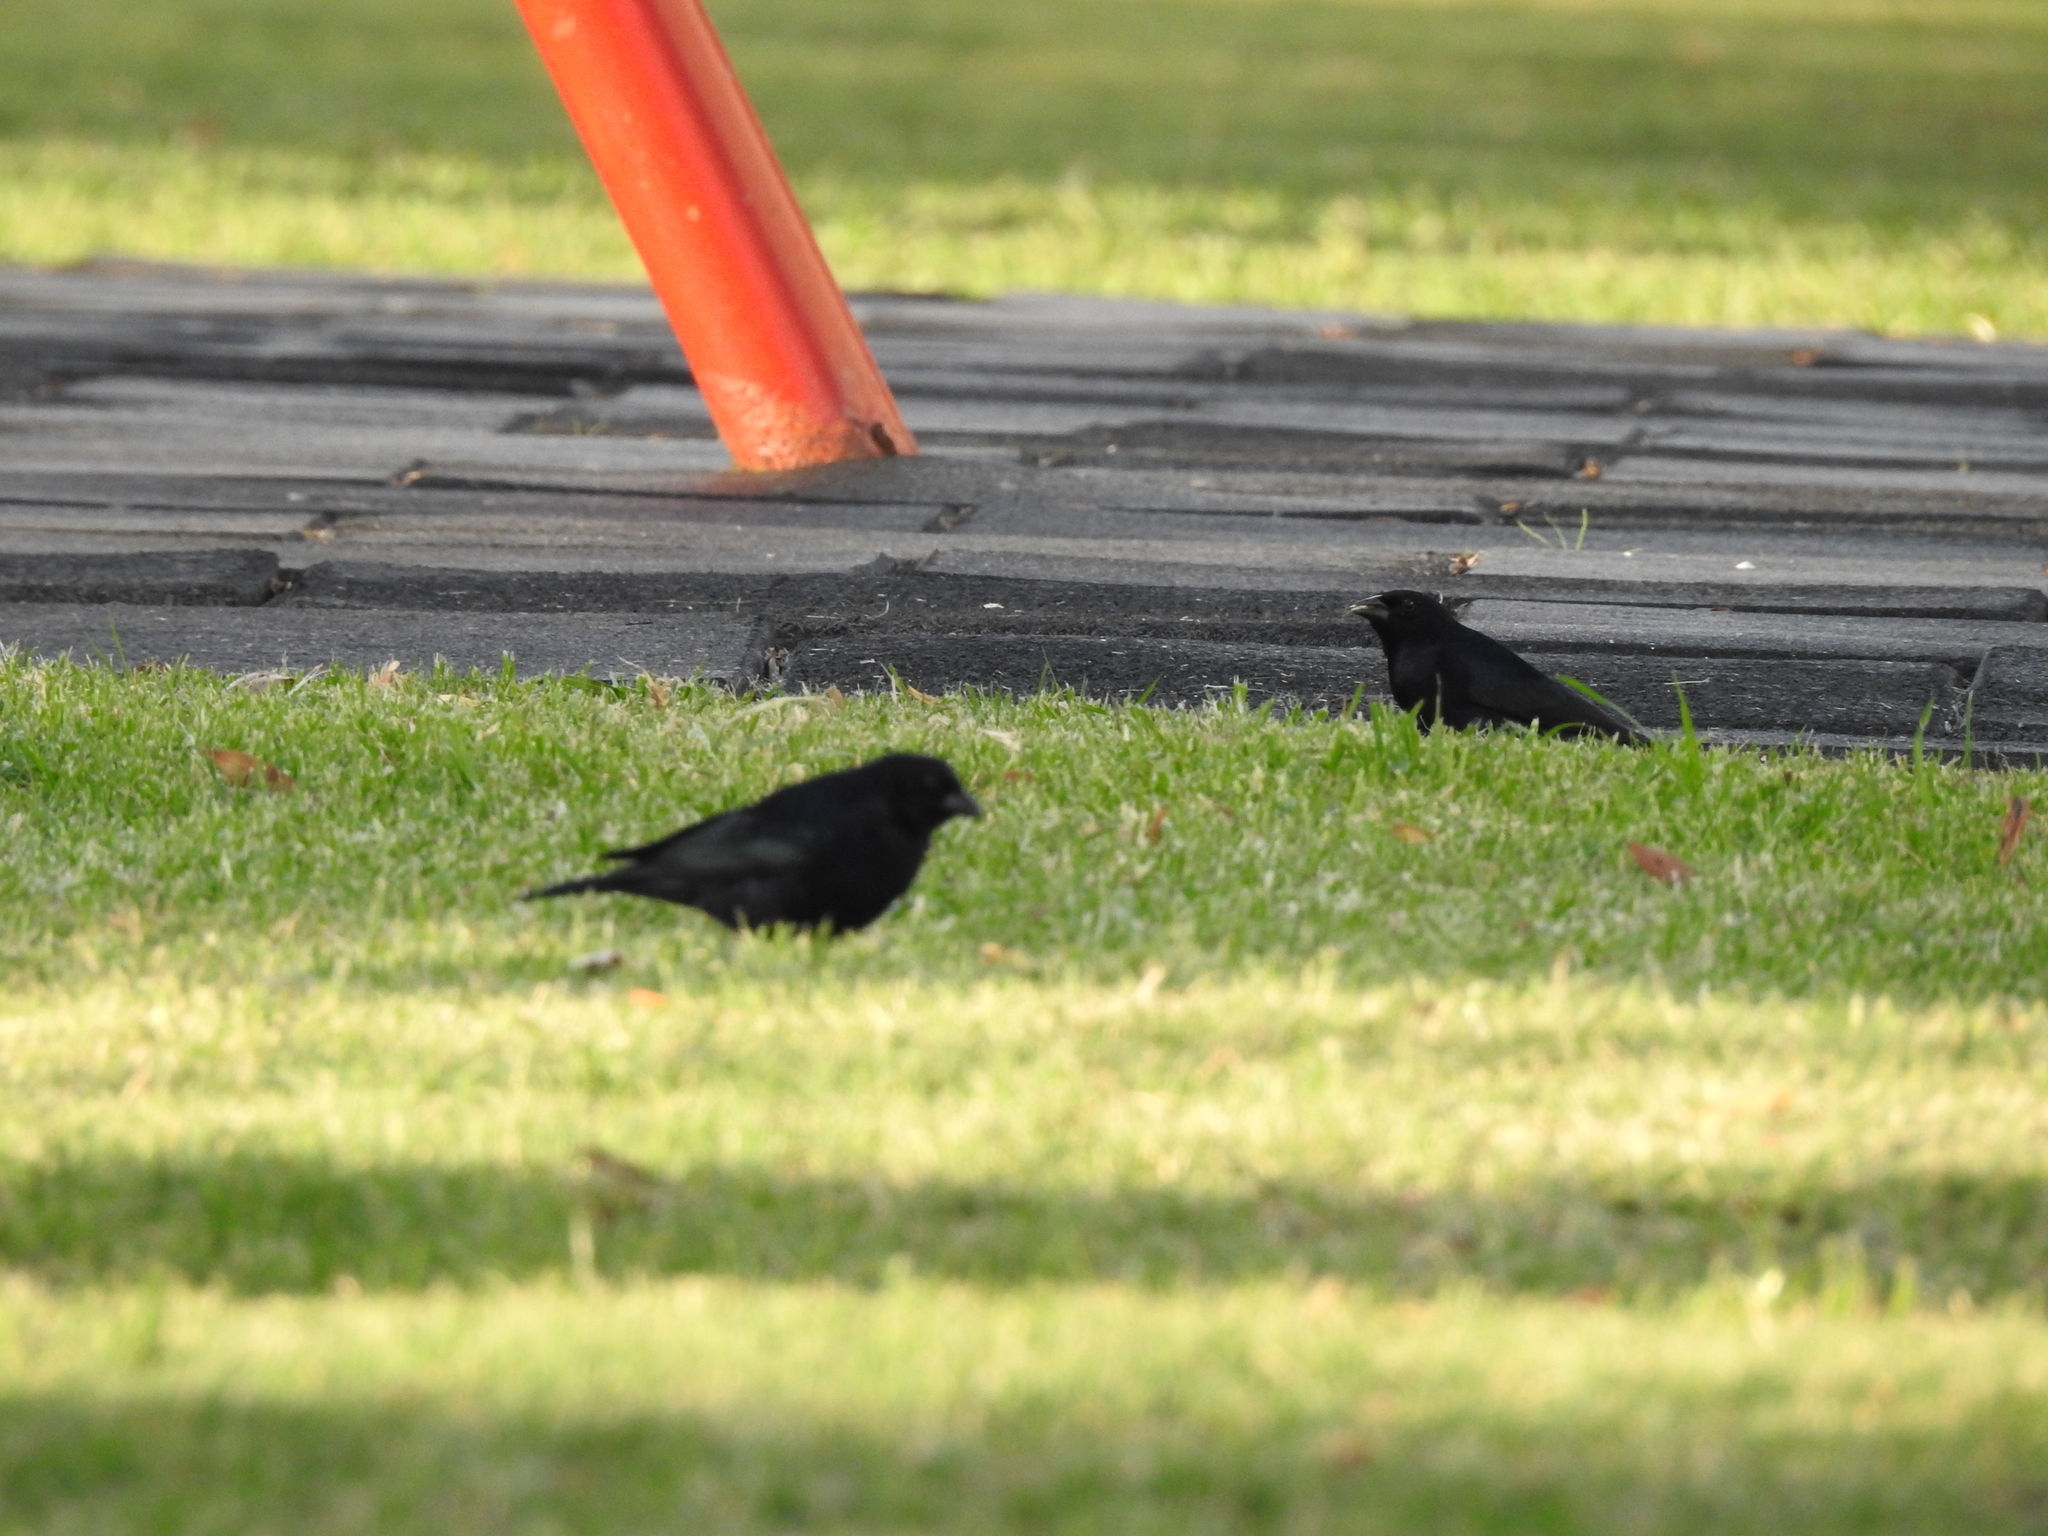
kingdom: Animalia
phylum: Chordata
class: Aves
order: Passeriformes
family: Icteridae
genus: Molothrus
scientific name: Molothrus bonariensis
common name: Shiny cowbird
